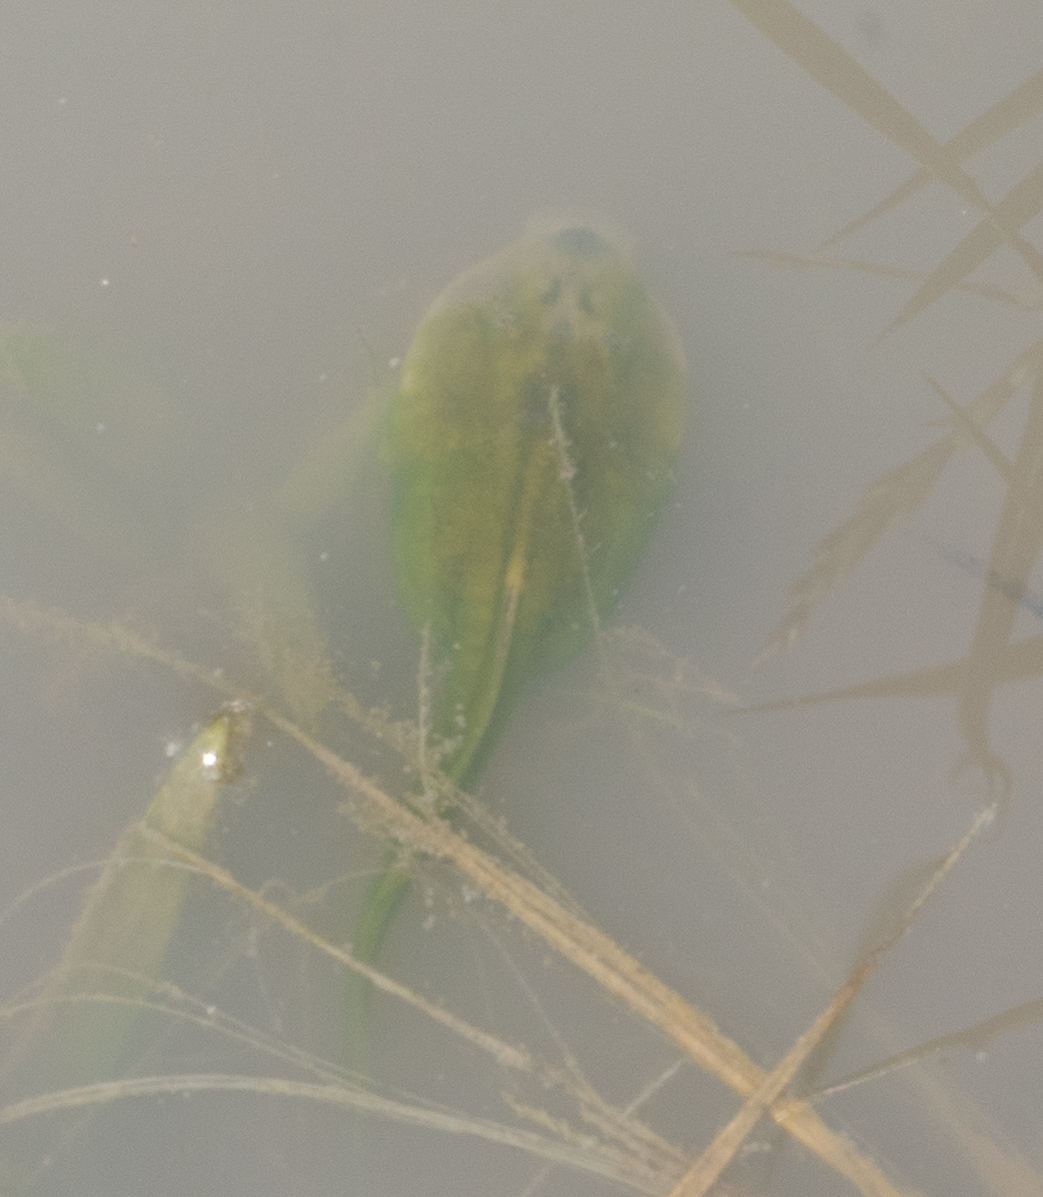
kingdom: Animalia
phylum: Chordata
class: Amphibia
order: Anura
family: Scaphiopodidae
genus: Spea
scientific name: Spea bombifrons
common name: Plains spadefoot
